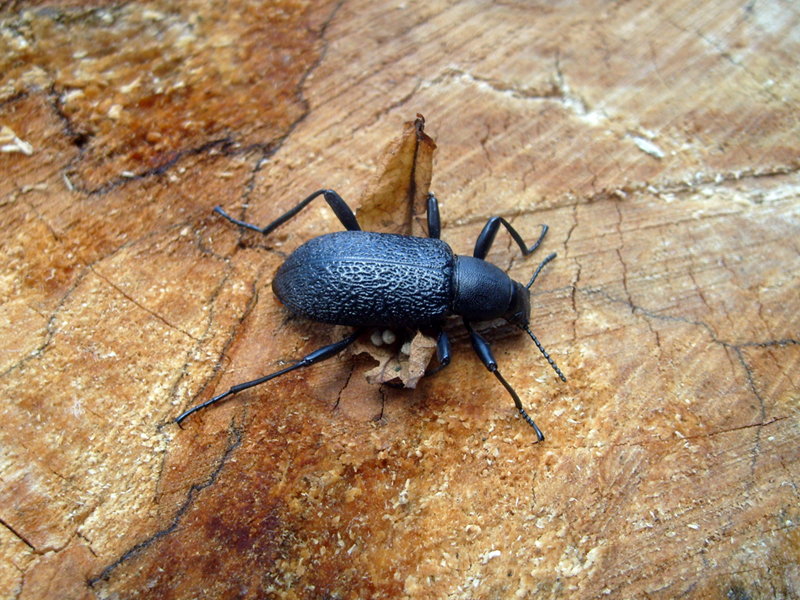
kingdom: Animalia
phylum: Arthropoda
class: Insecta
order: Coleoptera
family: Tenebrionidae
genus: Upis
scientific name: Upis ceramboides
